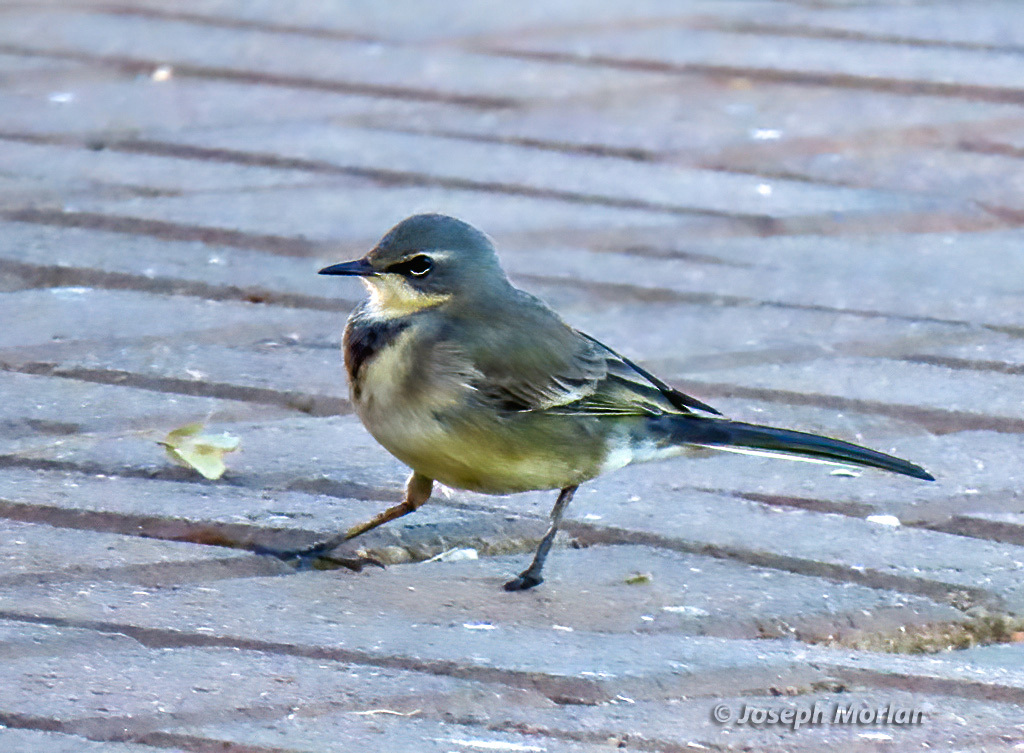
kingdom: Animalia
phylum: Chordata
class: Aves
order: Passeriformes
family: Motacillidae
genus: Motacilla
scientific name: Motacilla capensis
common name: Cape wagtail
